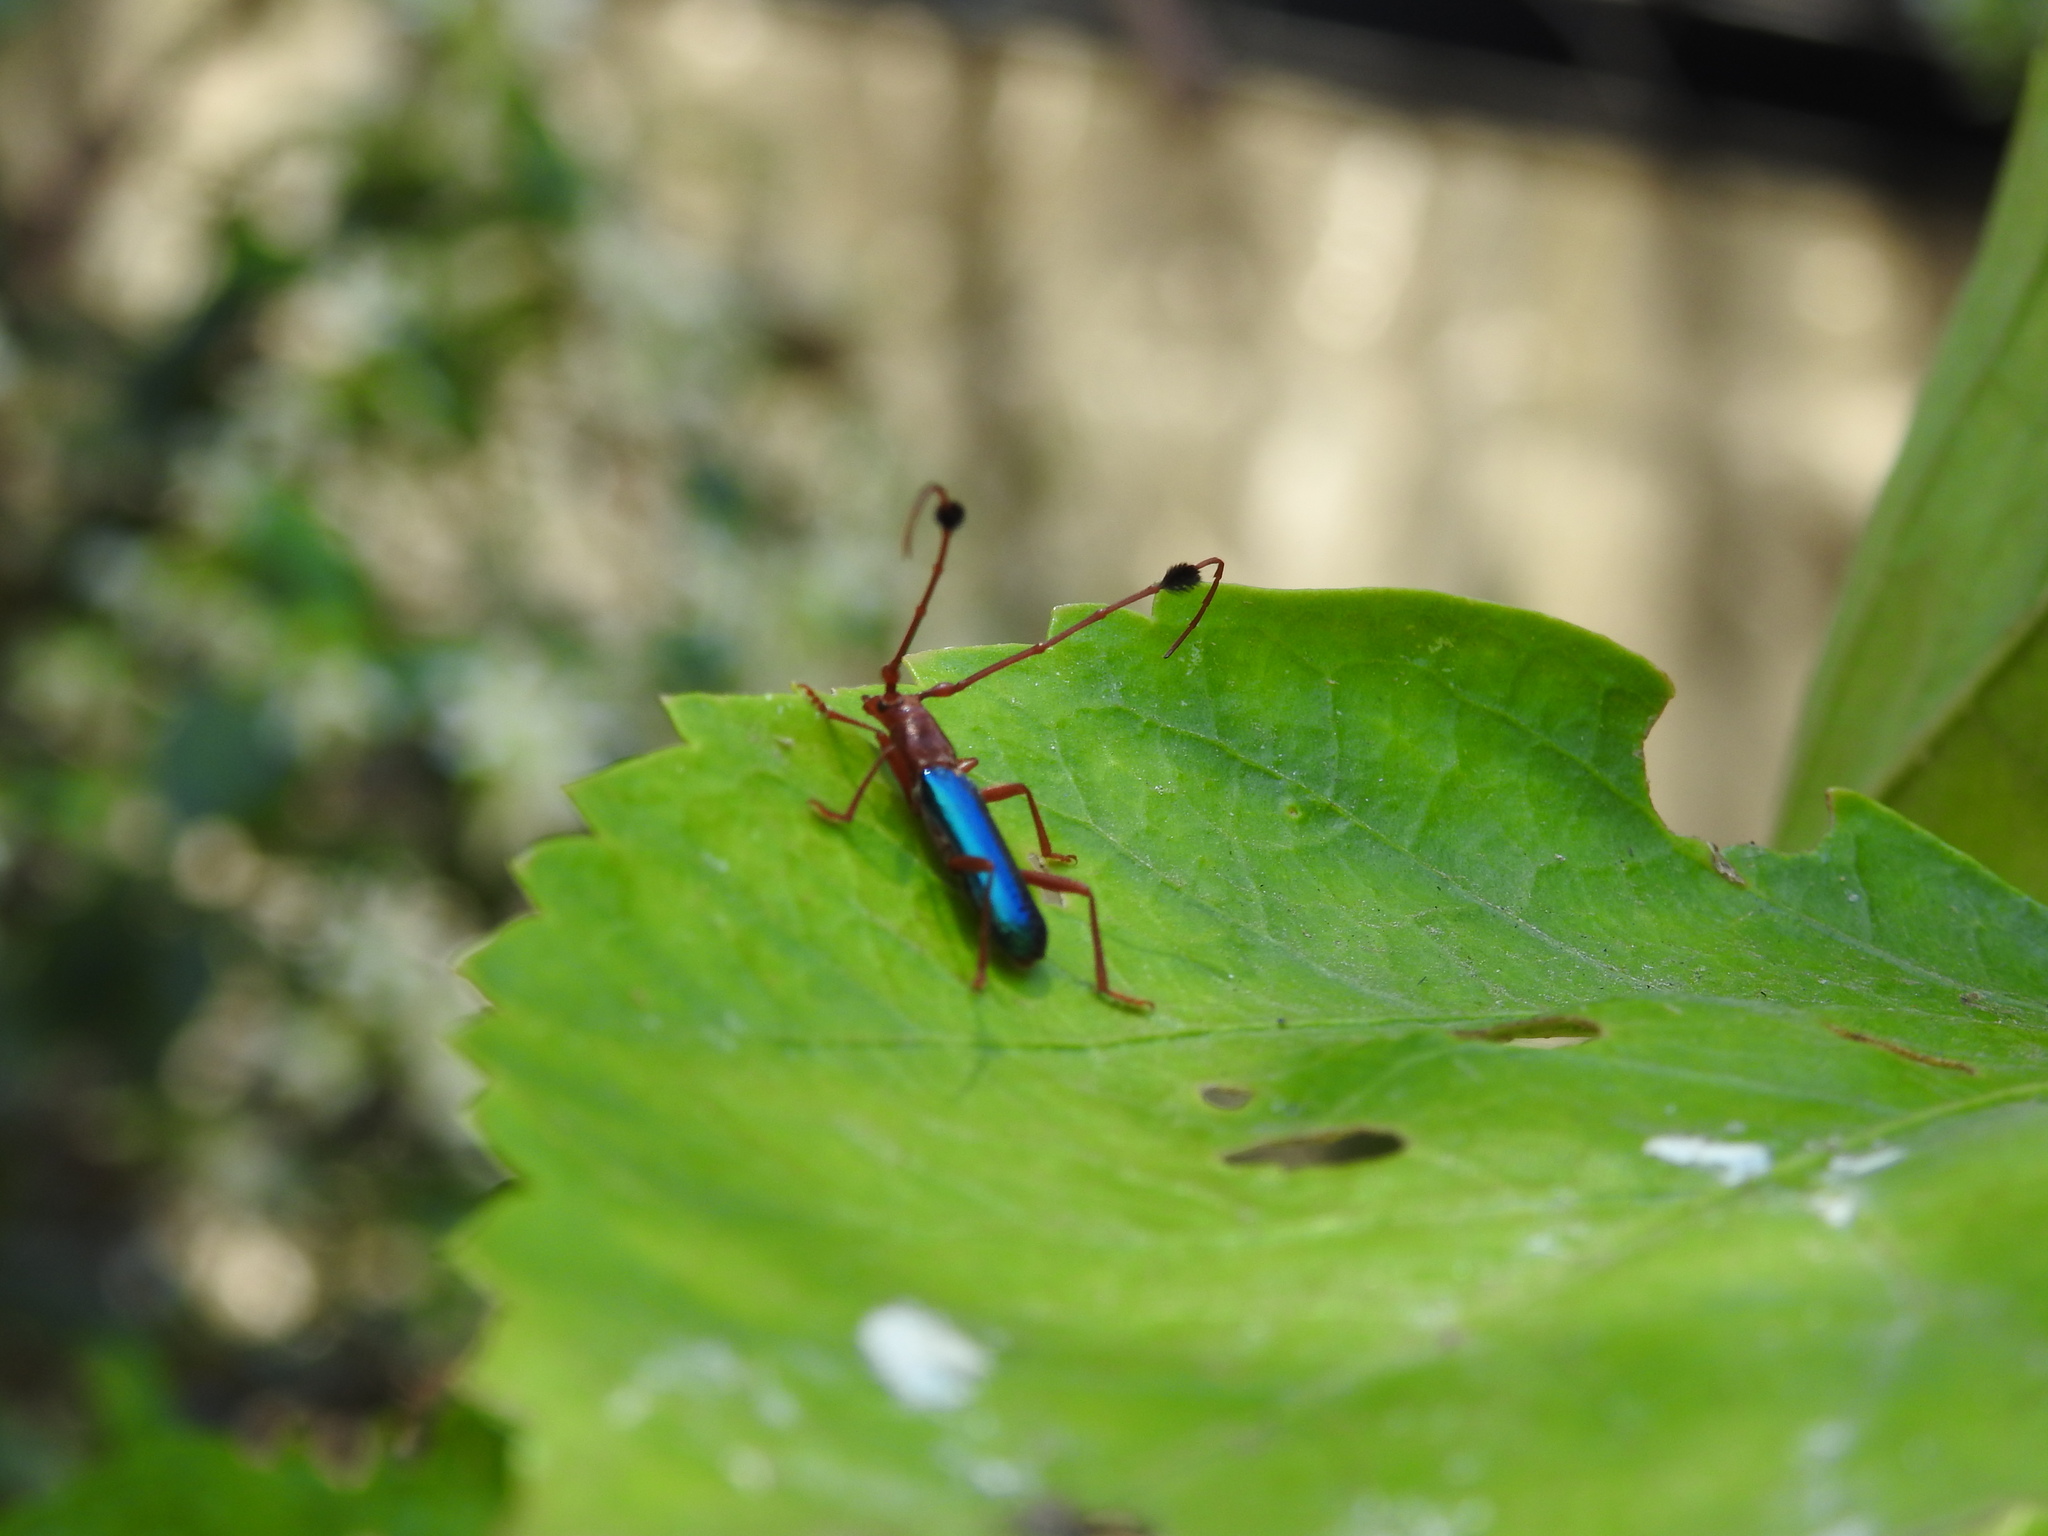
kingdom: Animalia
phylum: Arthropoda
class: Insecta
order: Coleoptera
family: Cerambycidae
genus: Compsocerus
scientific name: Compsocerus violaceus
